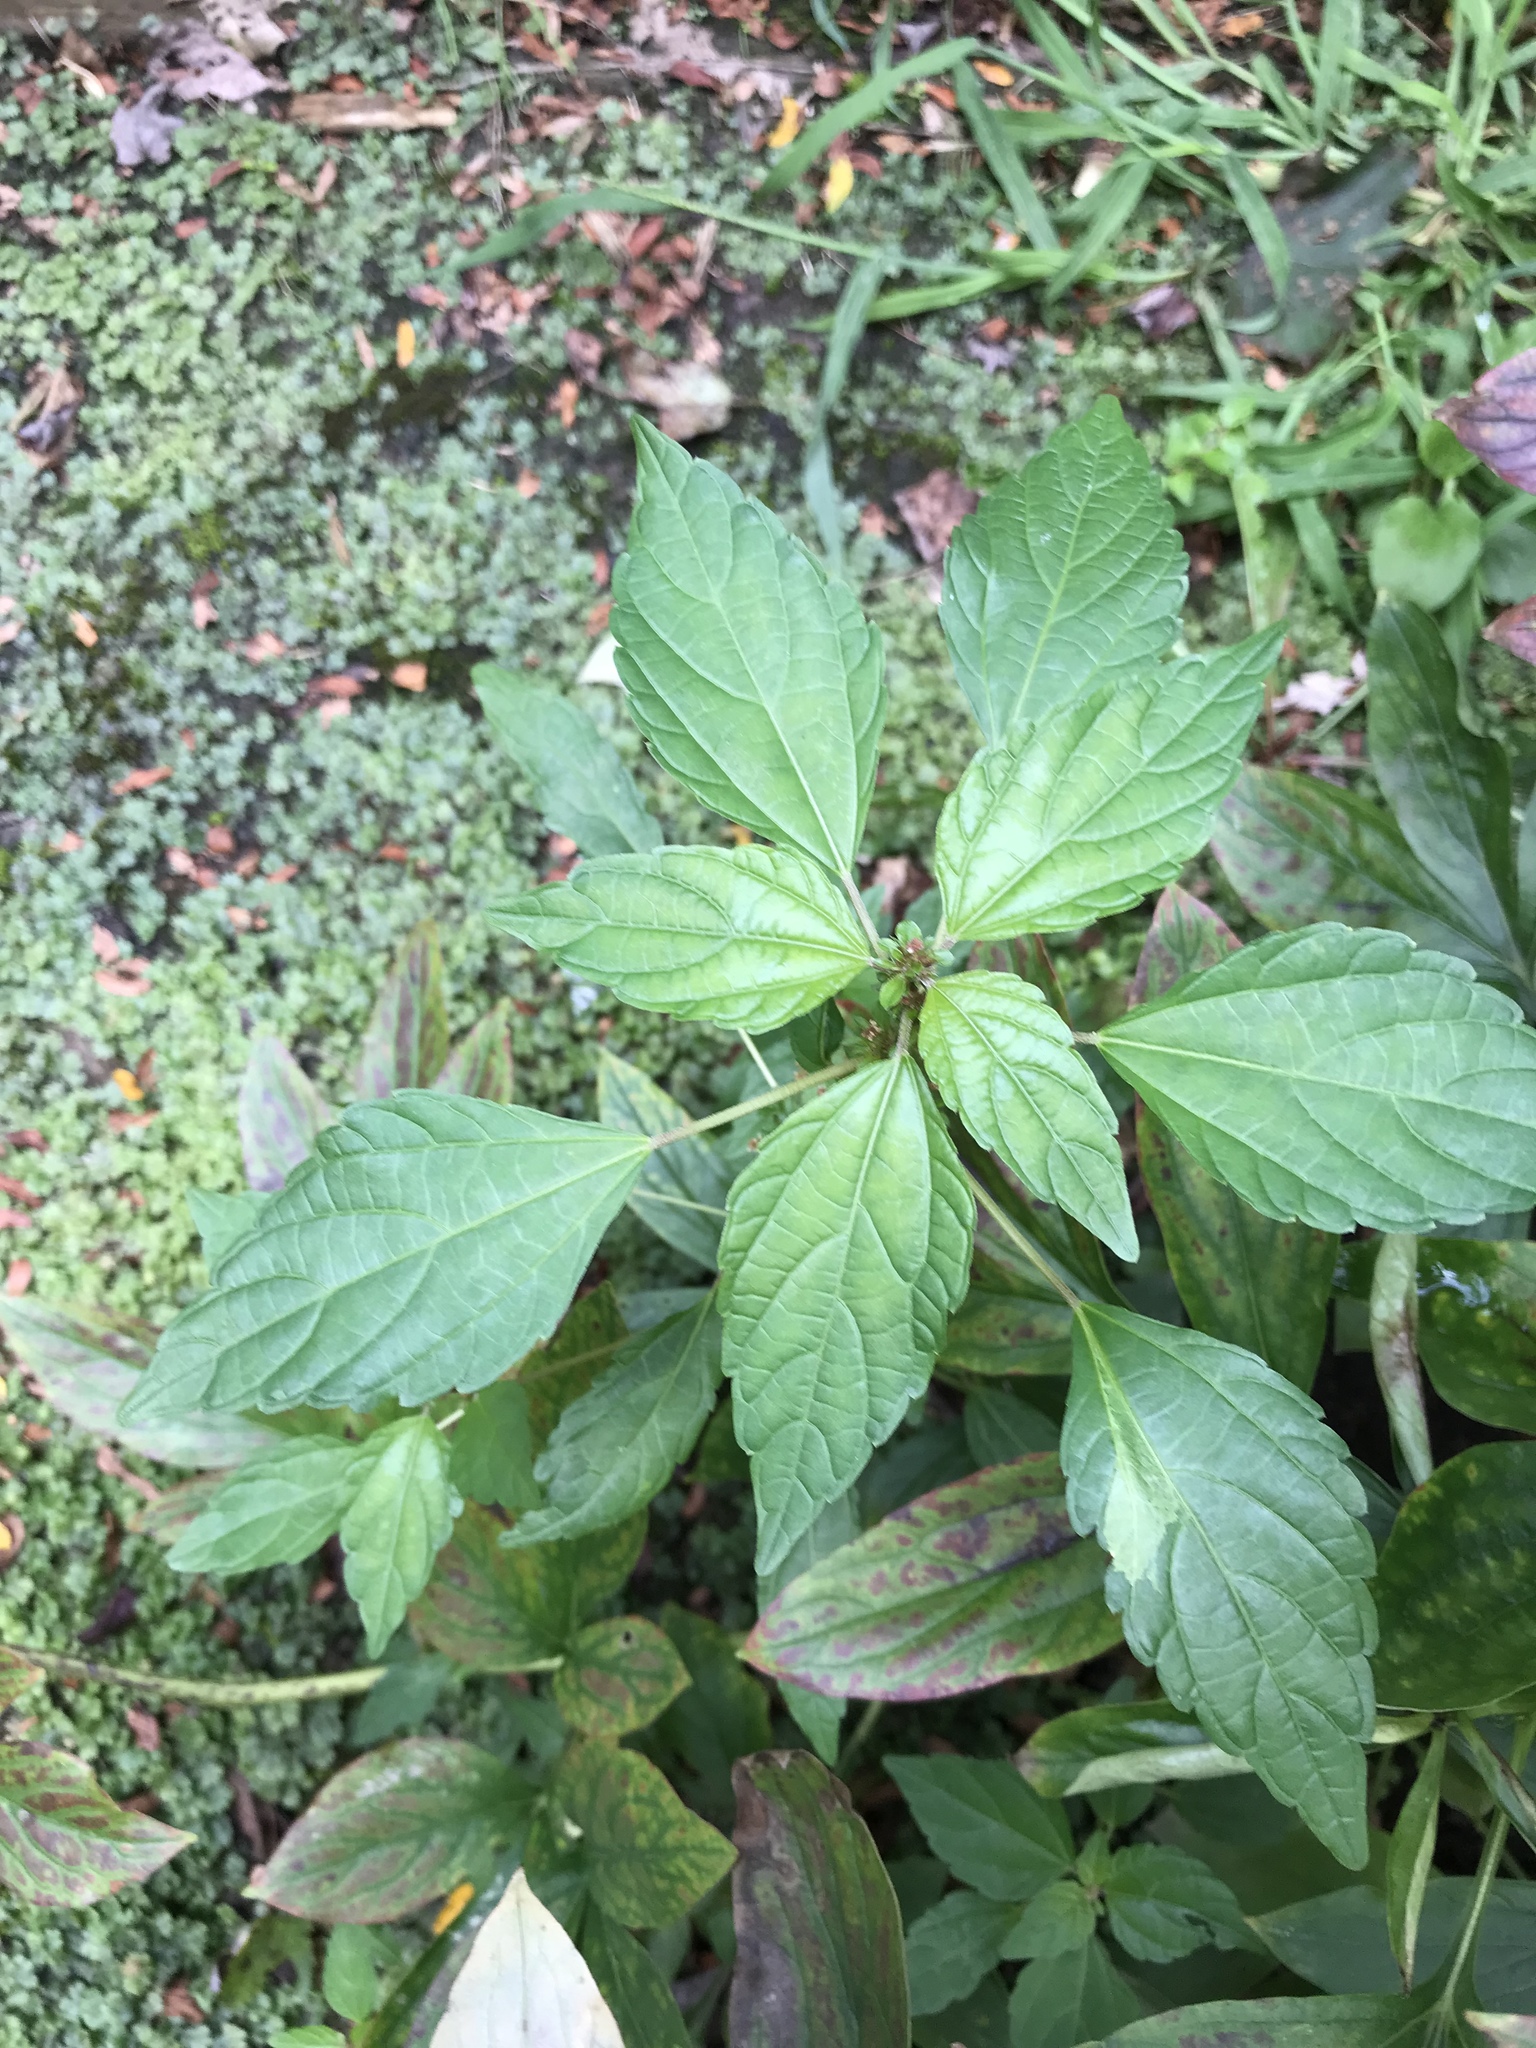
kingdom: Plantae
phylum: Tracheophyta
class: Magnoliopsida
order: Malpighiales
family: Euphorbiaceae
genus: Acalypha
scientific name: Acalypha rhomboidea
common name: Rhombic copperleaf
